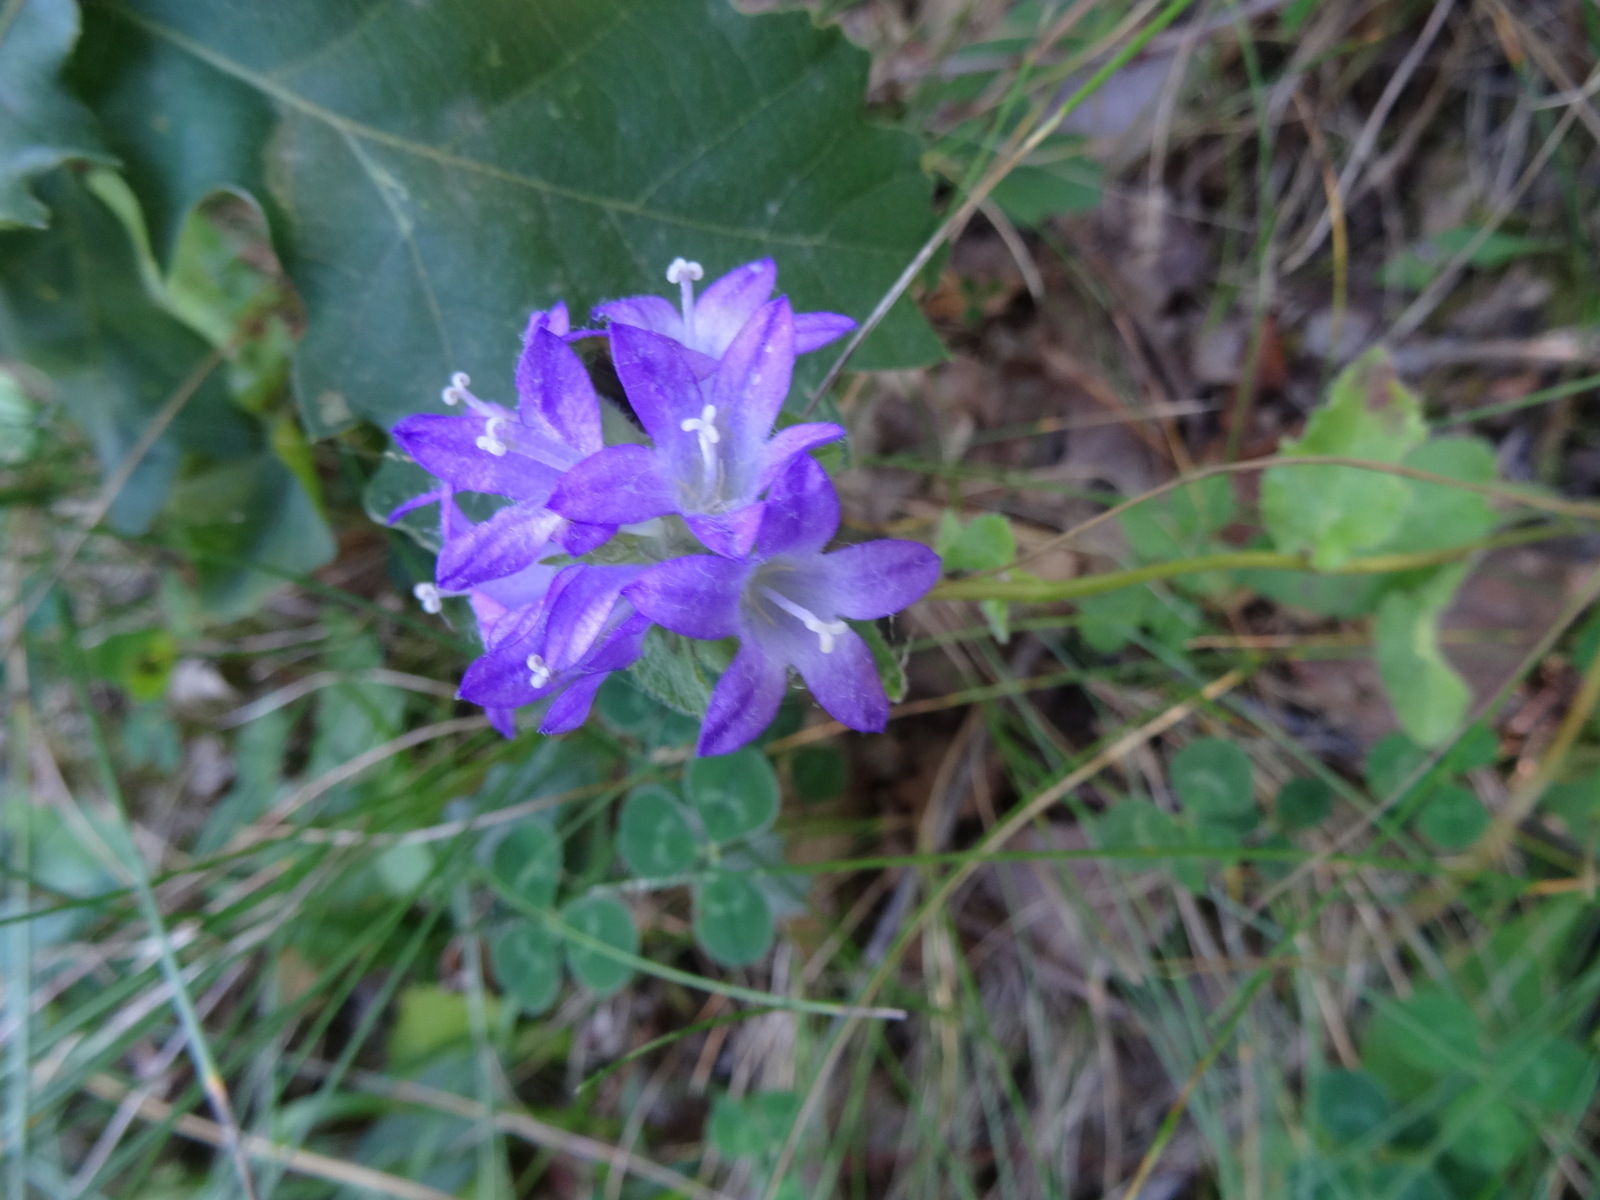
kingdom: Plantae
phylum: Tracheophyta
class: Magnoliopsida
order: Asterales
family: Campanulaceae
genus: Campanula
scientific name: Campanula glomerata
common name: Clustered bellflower
